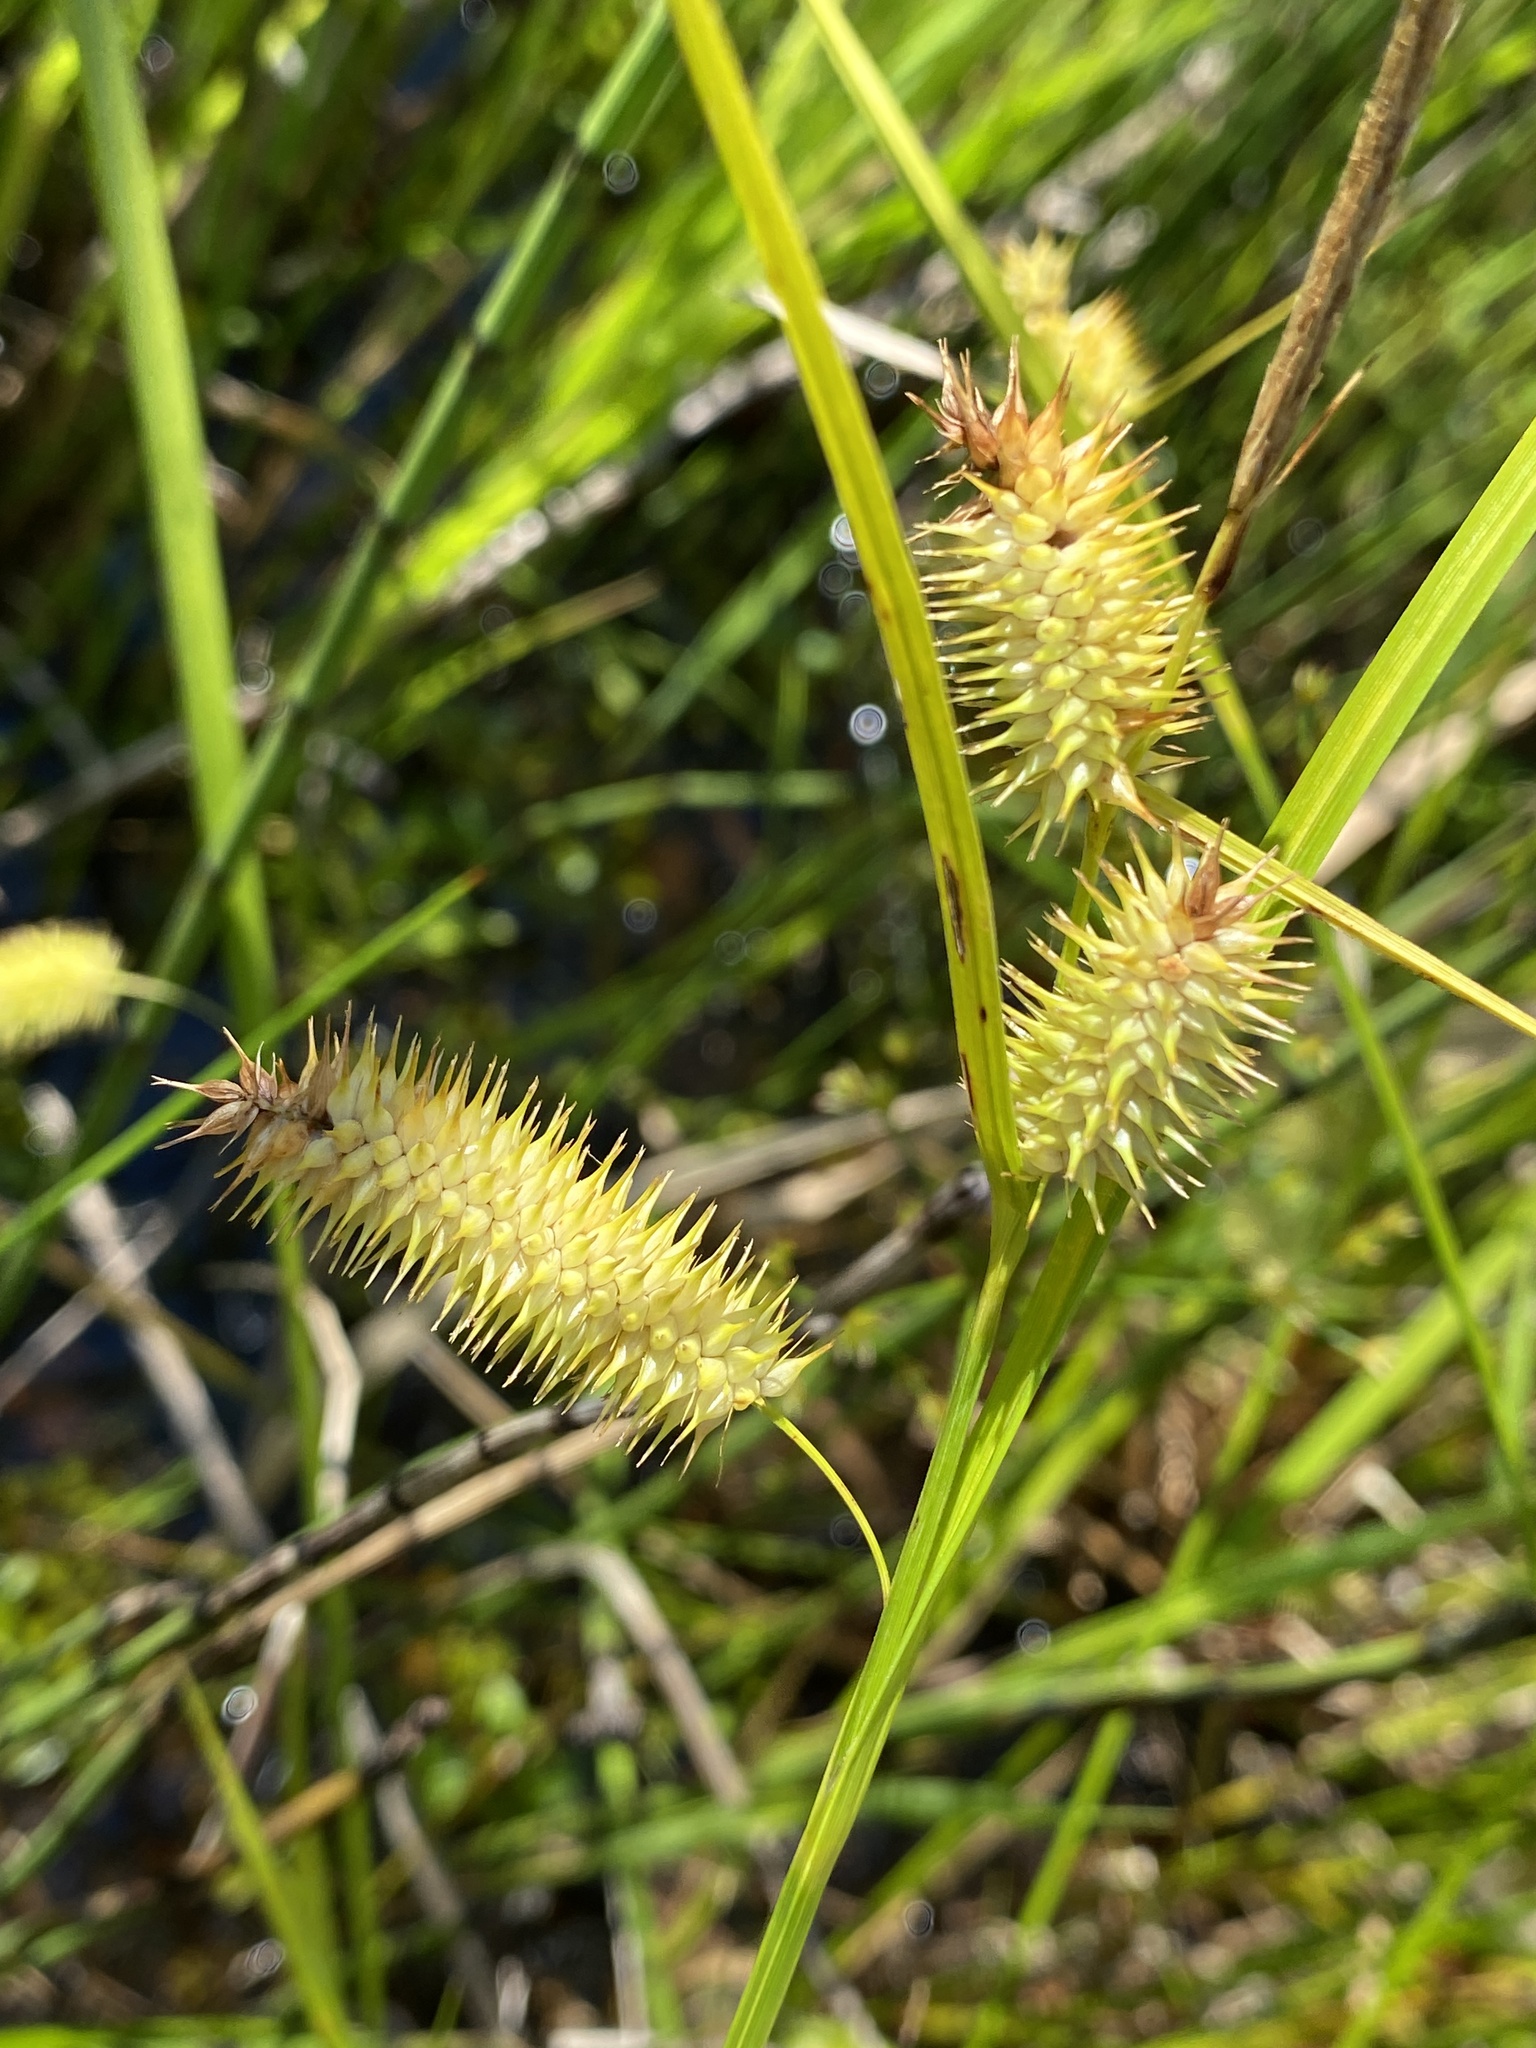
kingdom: Plantae
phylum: Tracheophyta
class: Liliopsida
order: Poales
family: Cyperaceae
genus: Carex
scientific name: Carex hystericina
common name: Bottlebrush sedge
